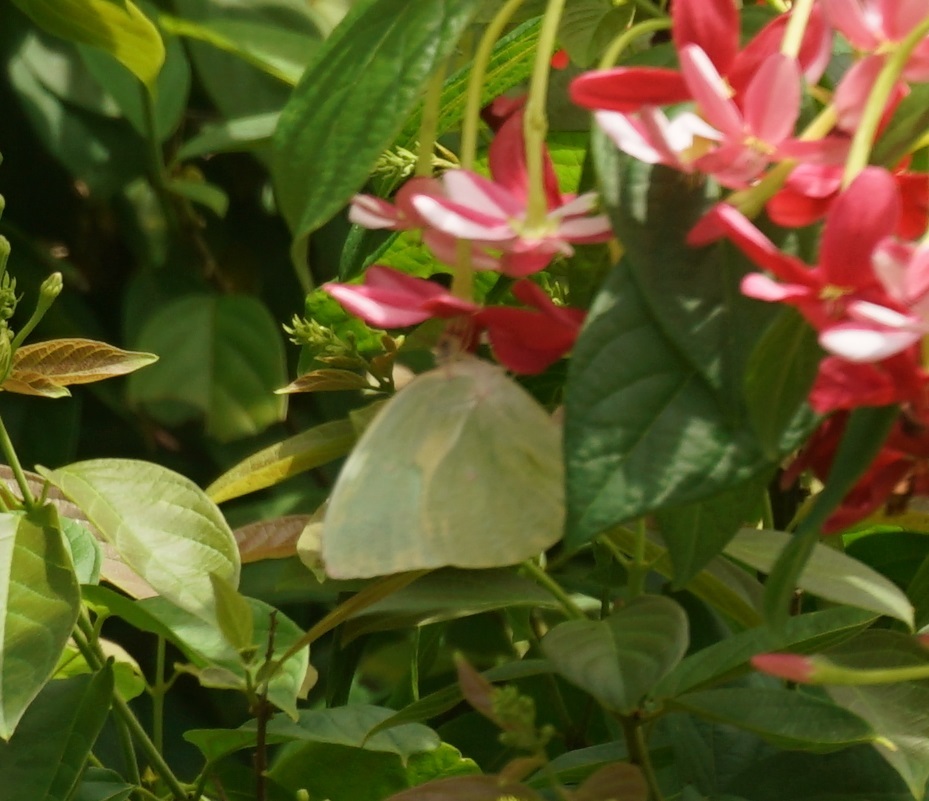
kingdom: Animalia
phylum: Arthropoda
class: Insecta
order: Lepidoptera
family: Pieridae
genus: Catopsilia
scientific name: Catopsilia pomona
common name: Common emigrant
